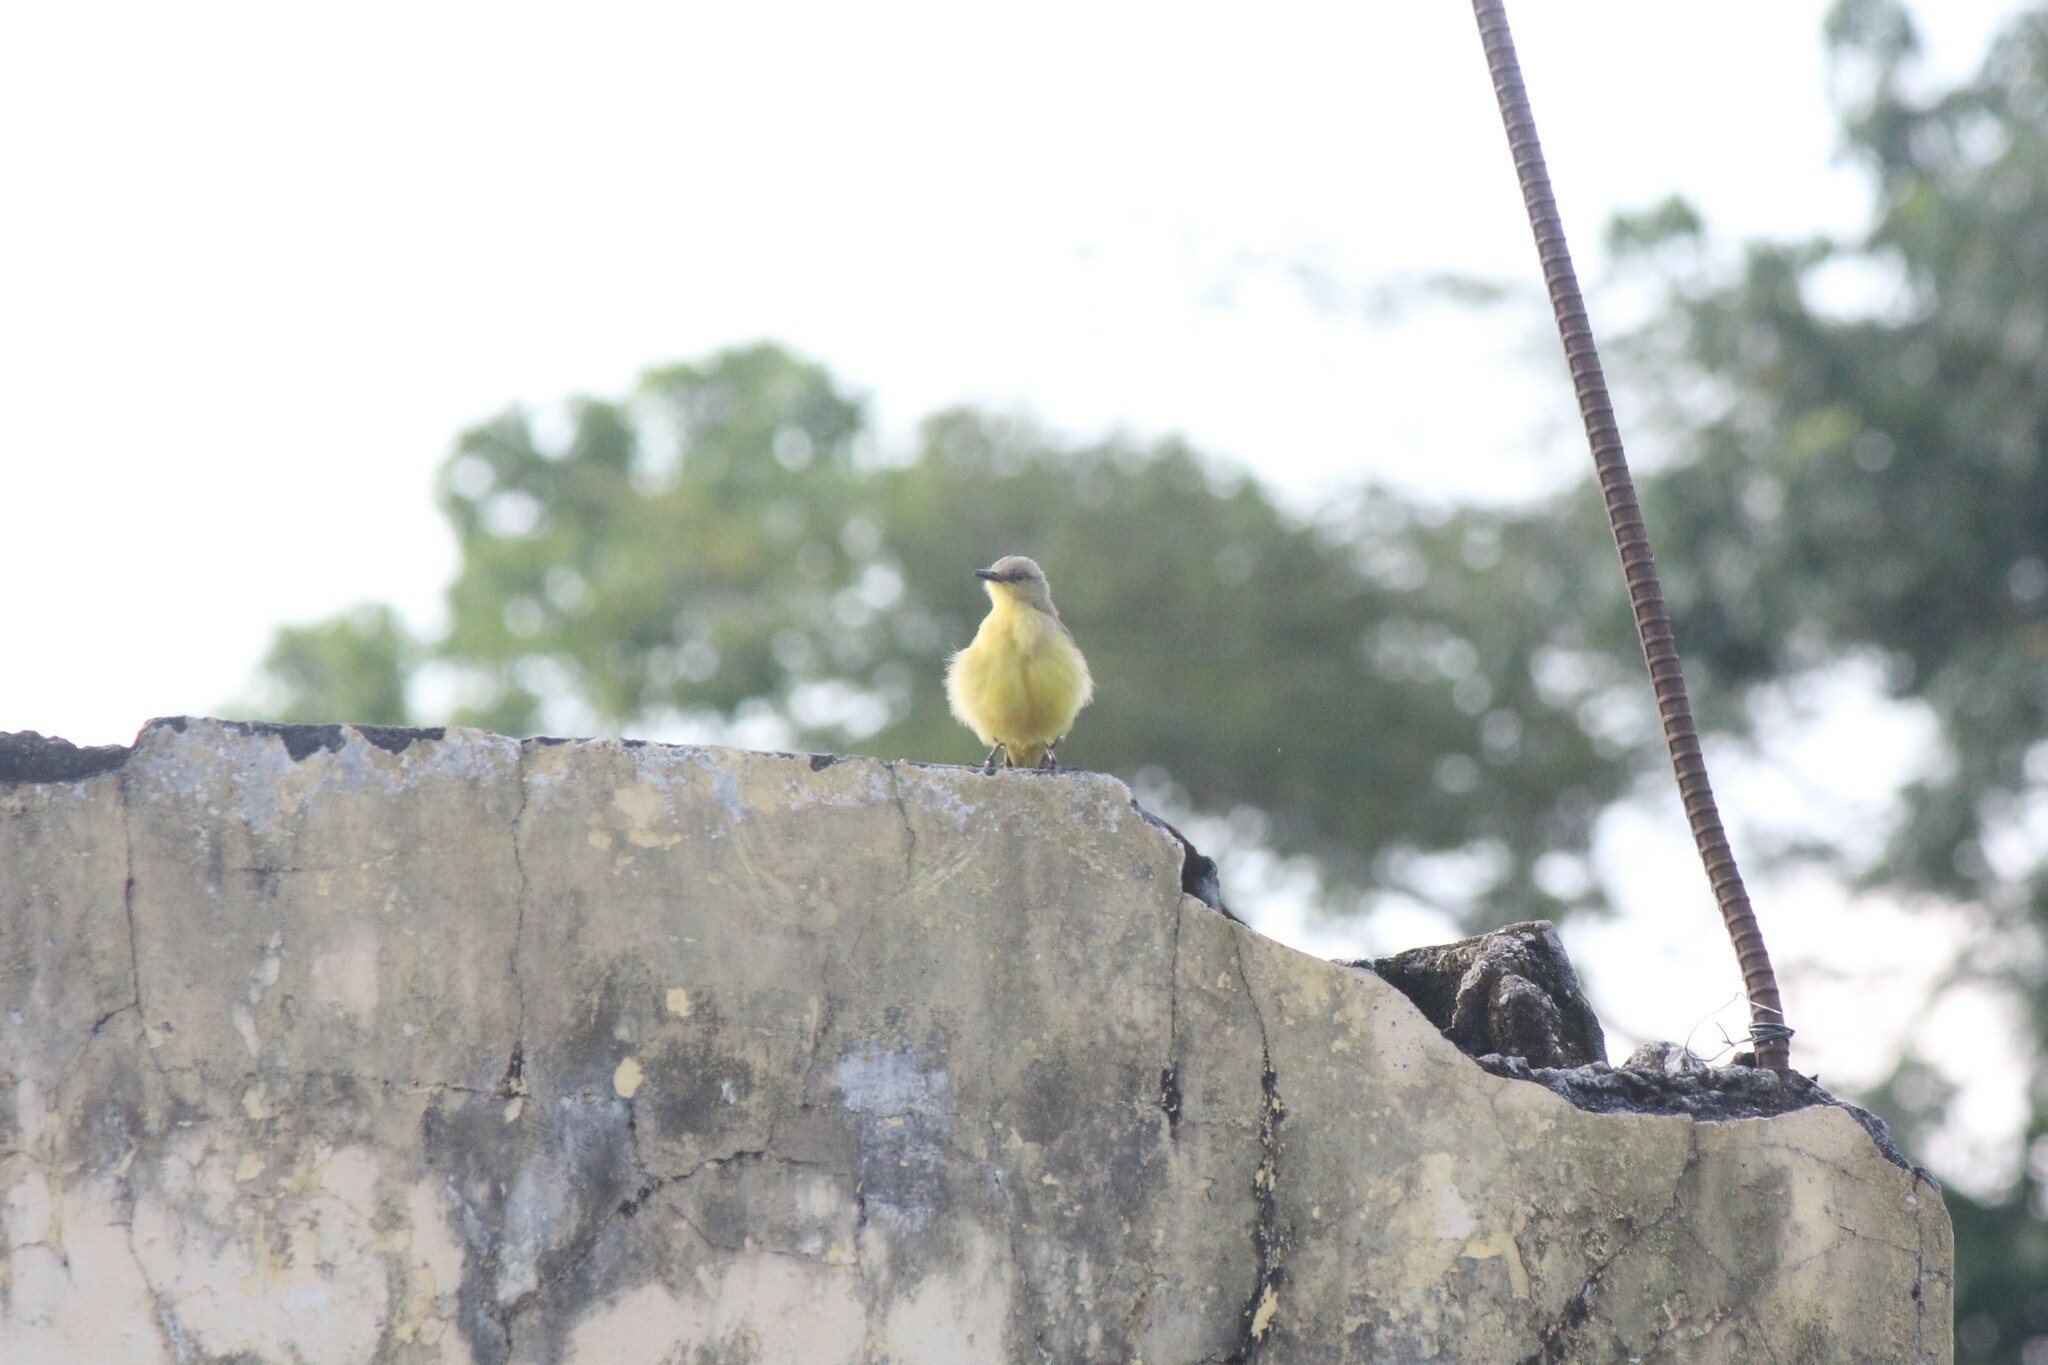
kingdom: Animalia
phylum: Chordata
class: Aves
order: Passeriformes
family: Tyrannidae
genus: Machetornis
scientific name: Machetornis rixosa
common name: Cattle tyrant
